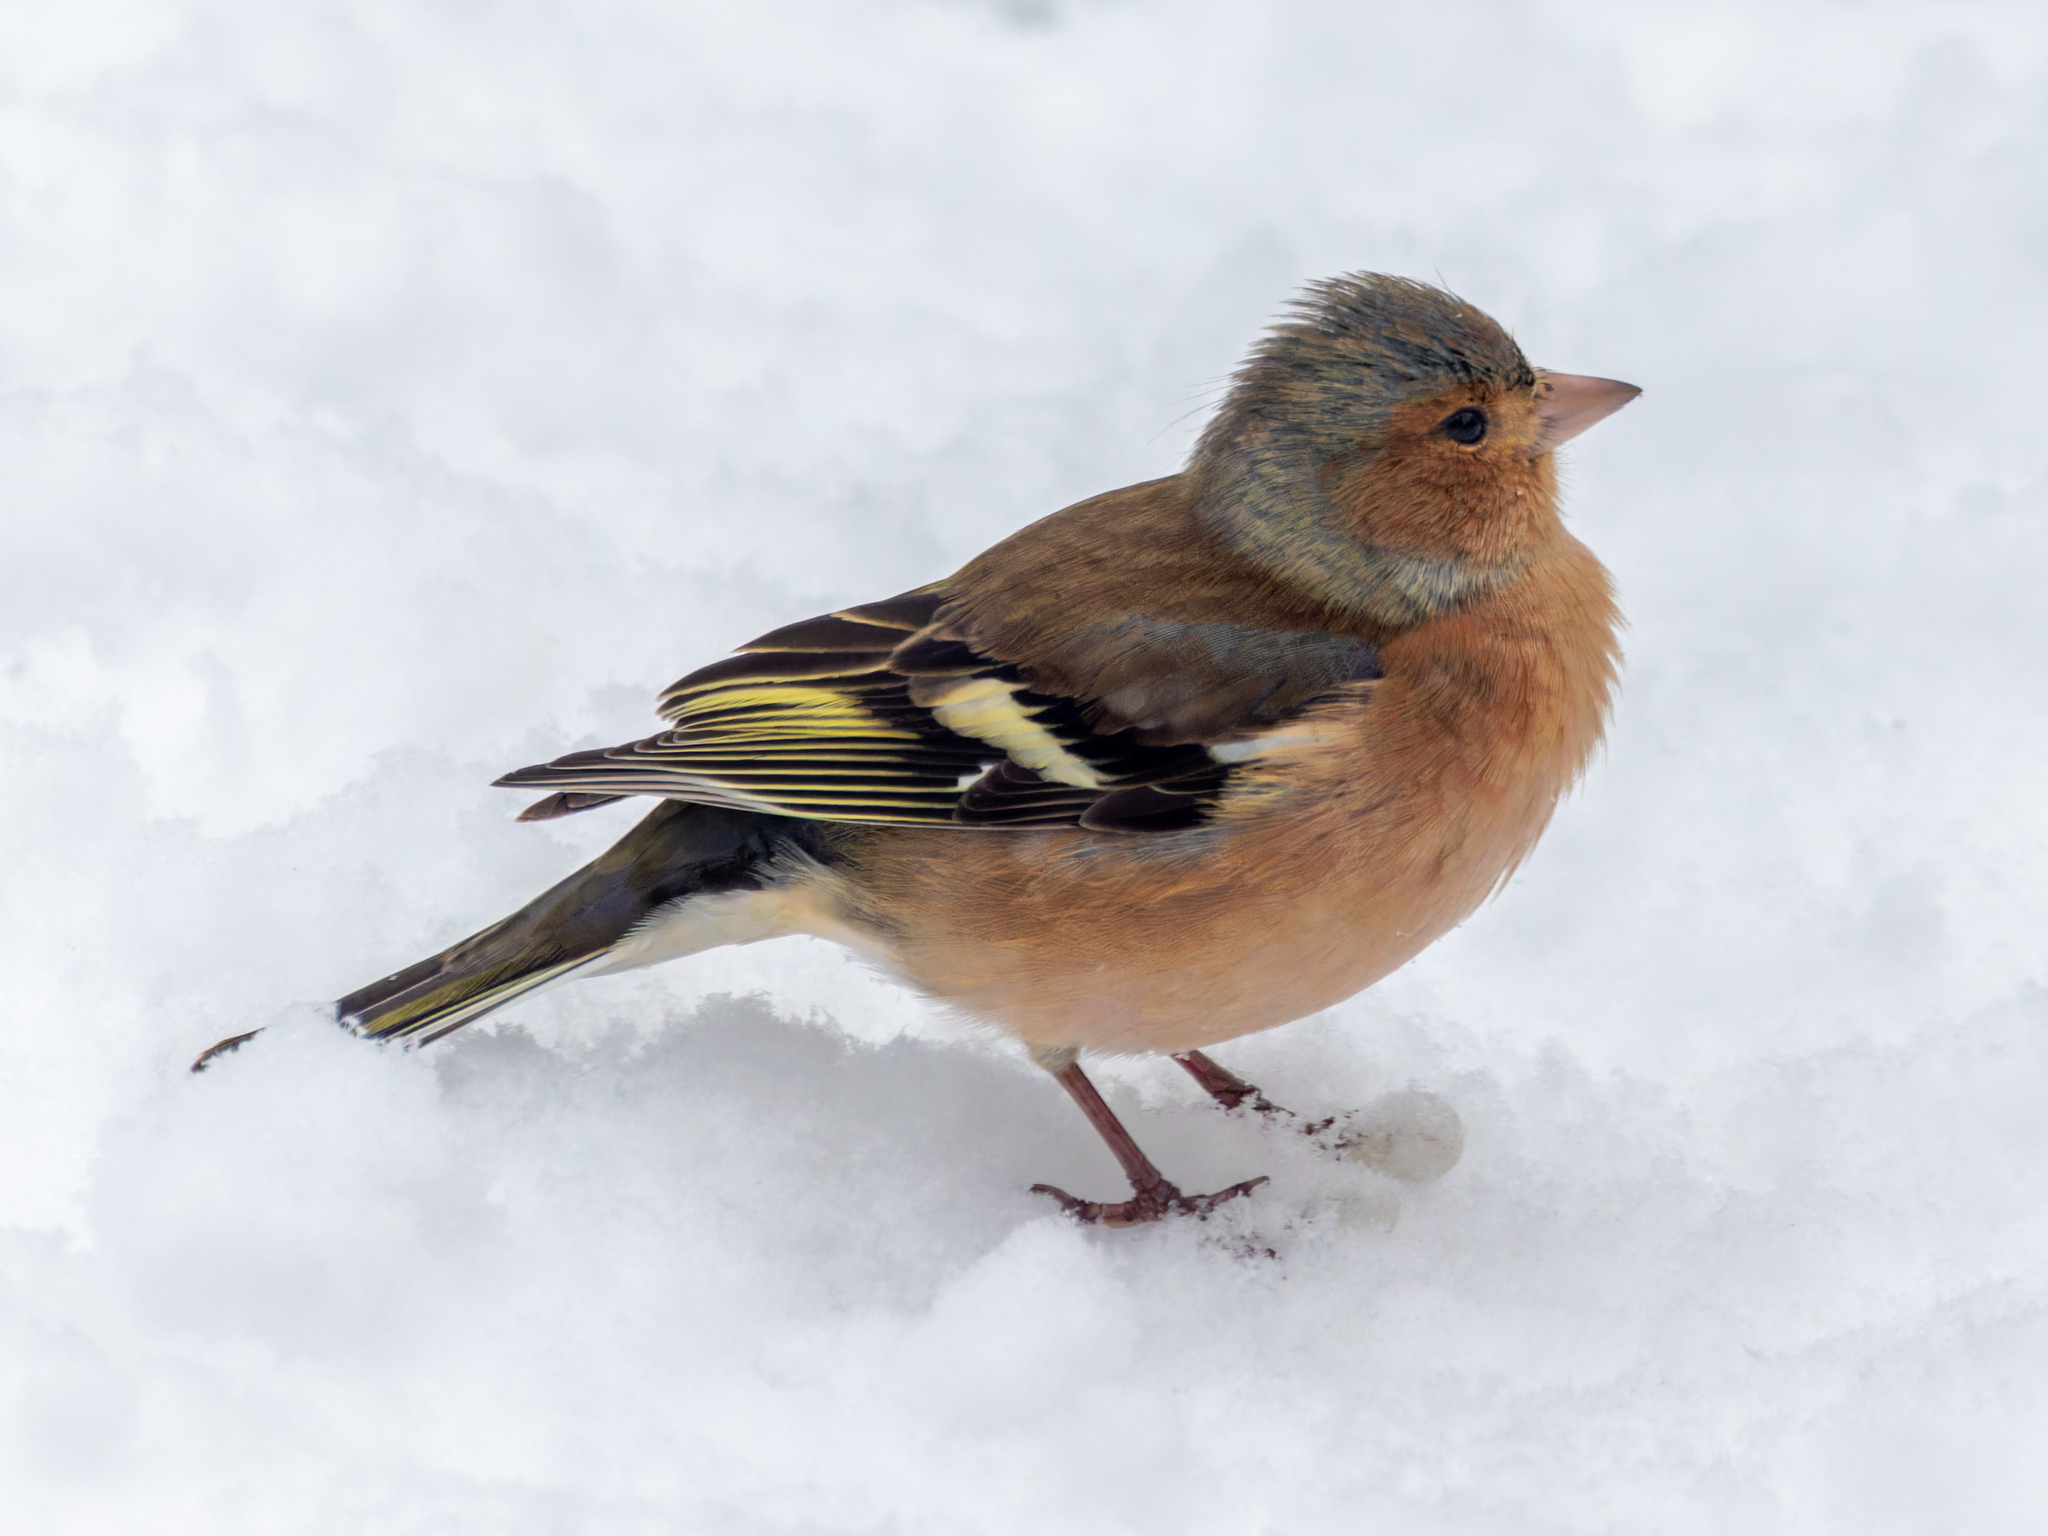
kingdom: Animalia
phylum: Chordata
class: Aves
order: Passeriformes
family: Fringillidae
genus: Fringilla
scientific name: Fringilla coelebs
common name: Common chaffinch
